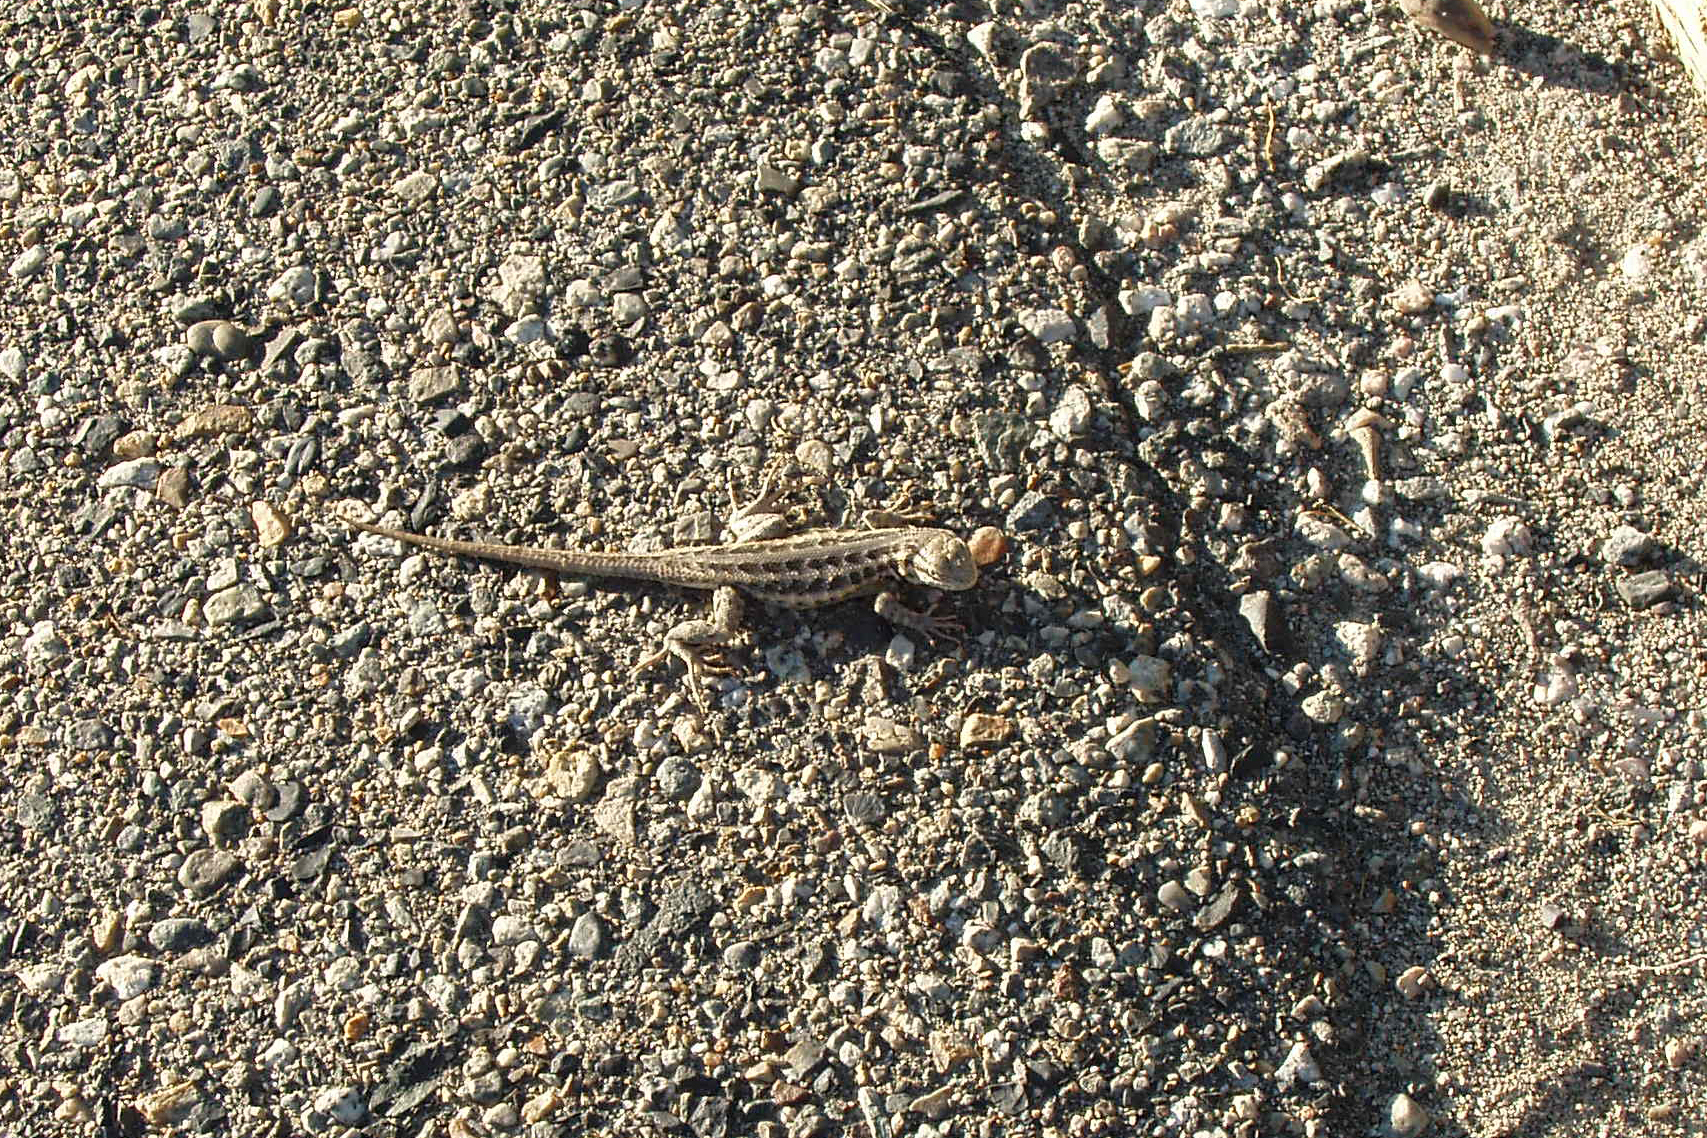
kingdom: Animalia
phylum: Chordata
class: Squamata
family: Phrynosomatidae
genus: Sceloporus
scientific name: Sceloporus graciosus
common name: Sagebrush lizard
